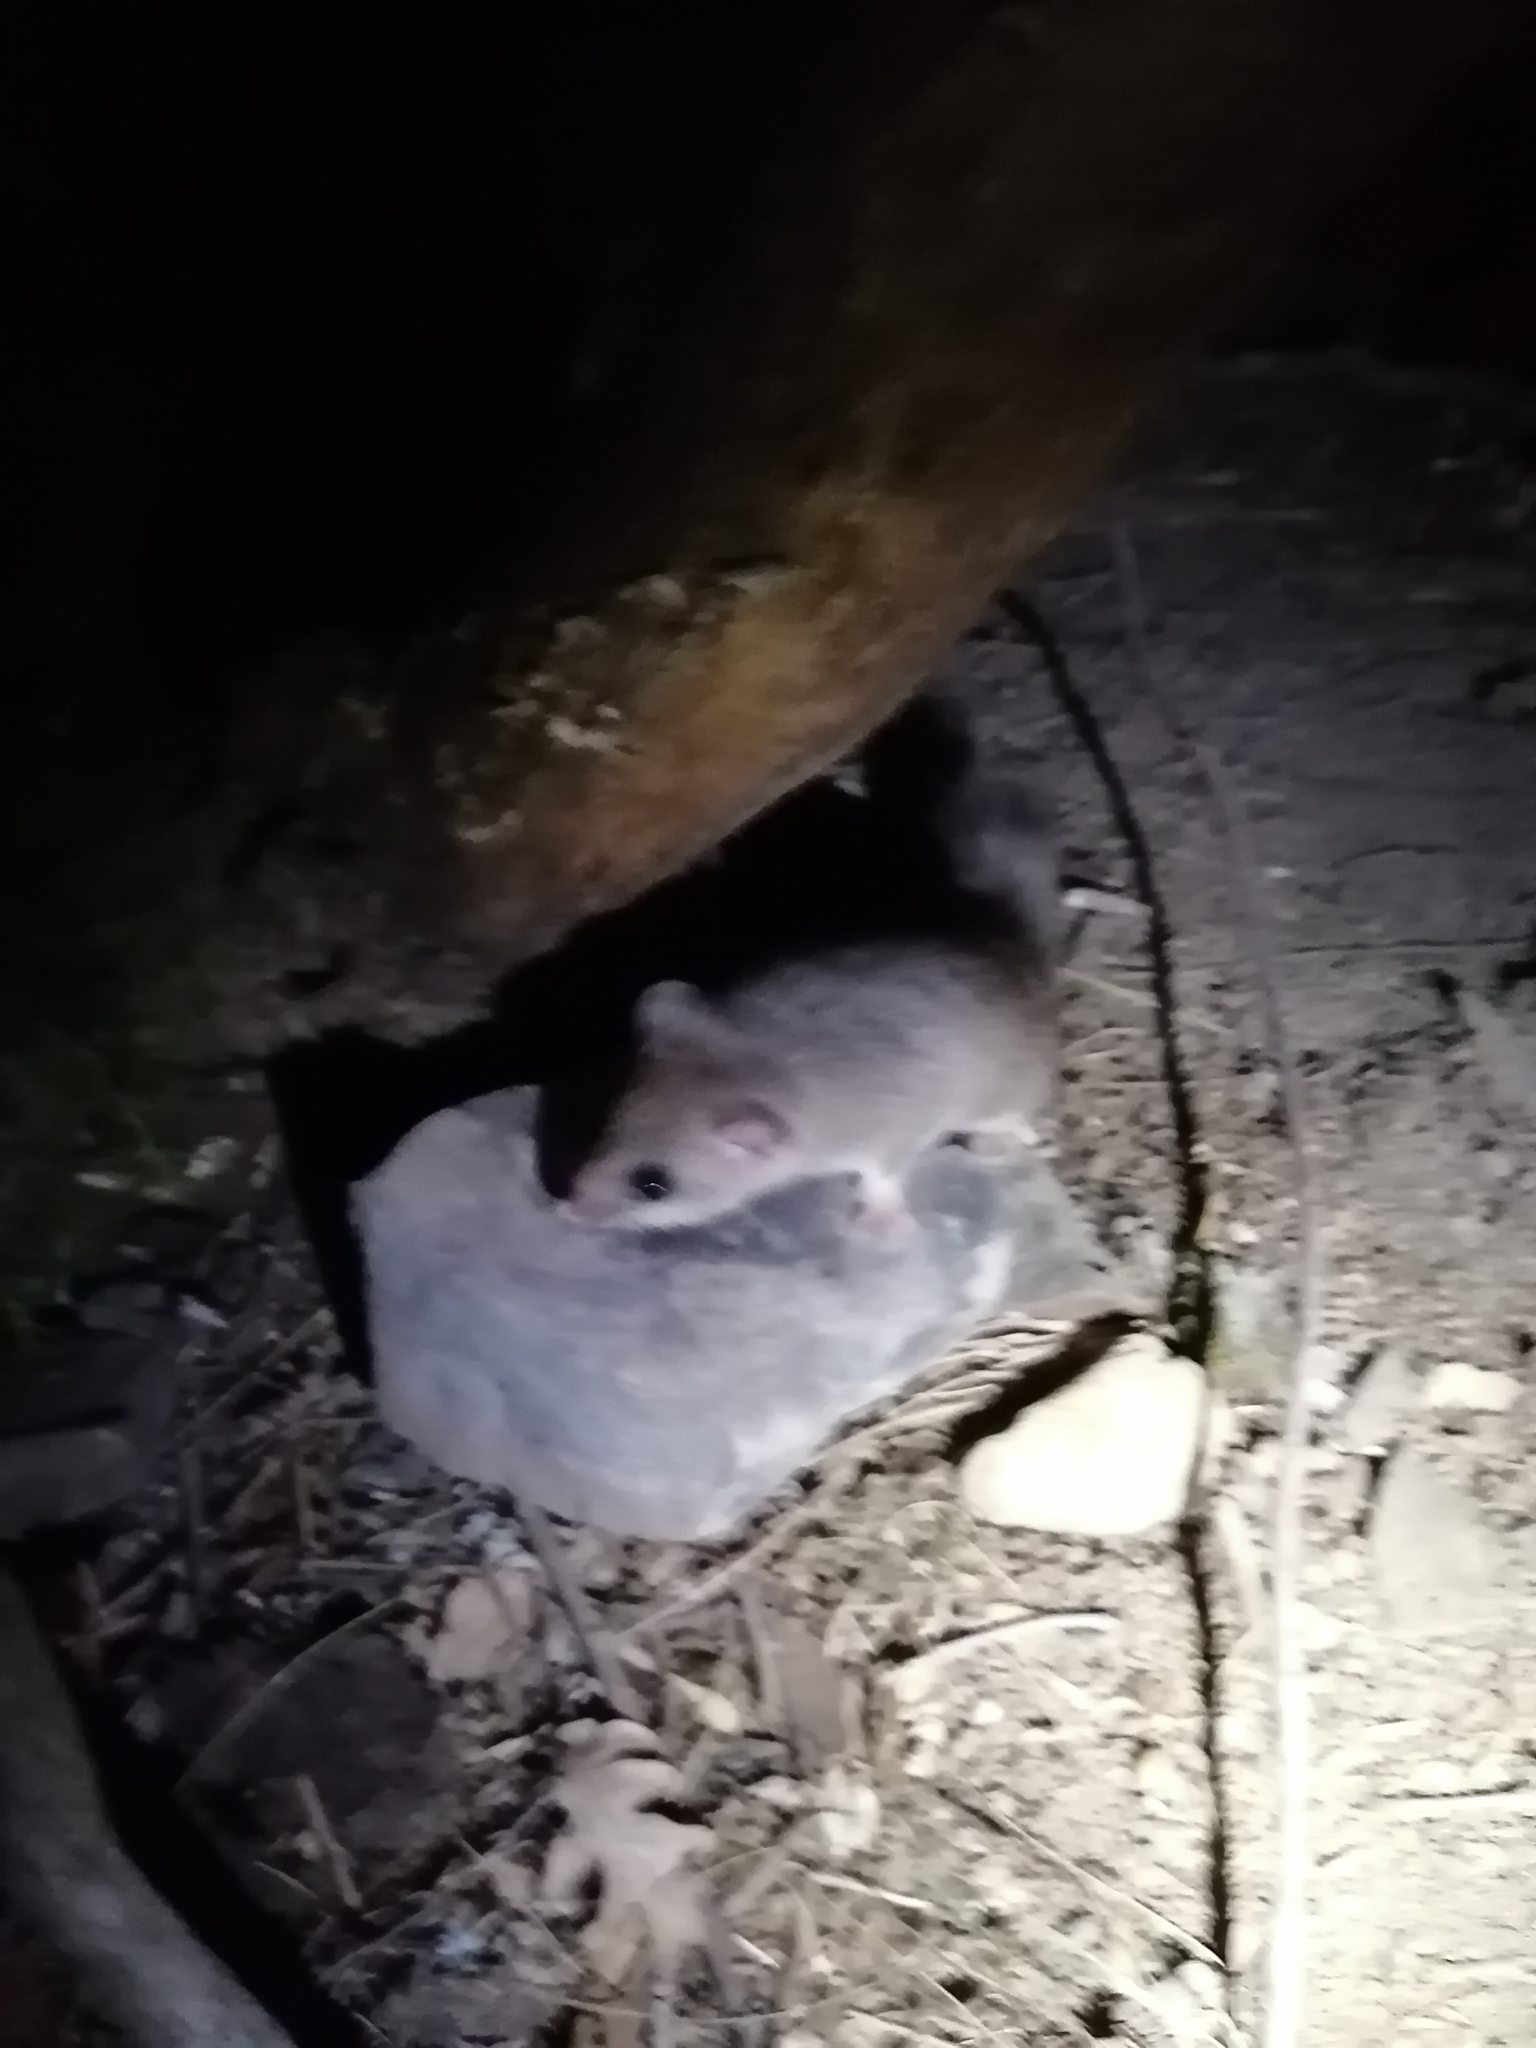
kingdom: Animalia
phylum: Chordata
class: Mammalia
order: Rodentia
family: Gliridae
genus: Glis
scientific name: Glis glis
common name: Fat dormouse
